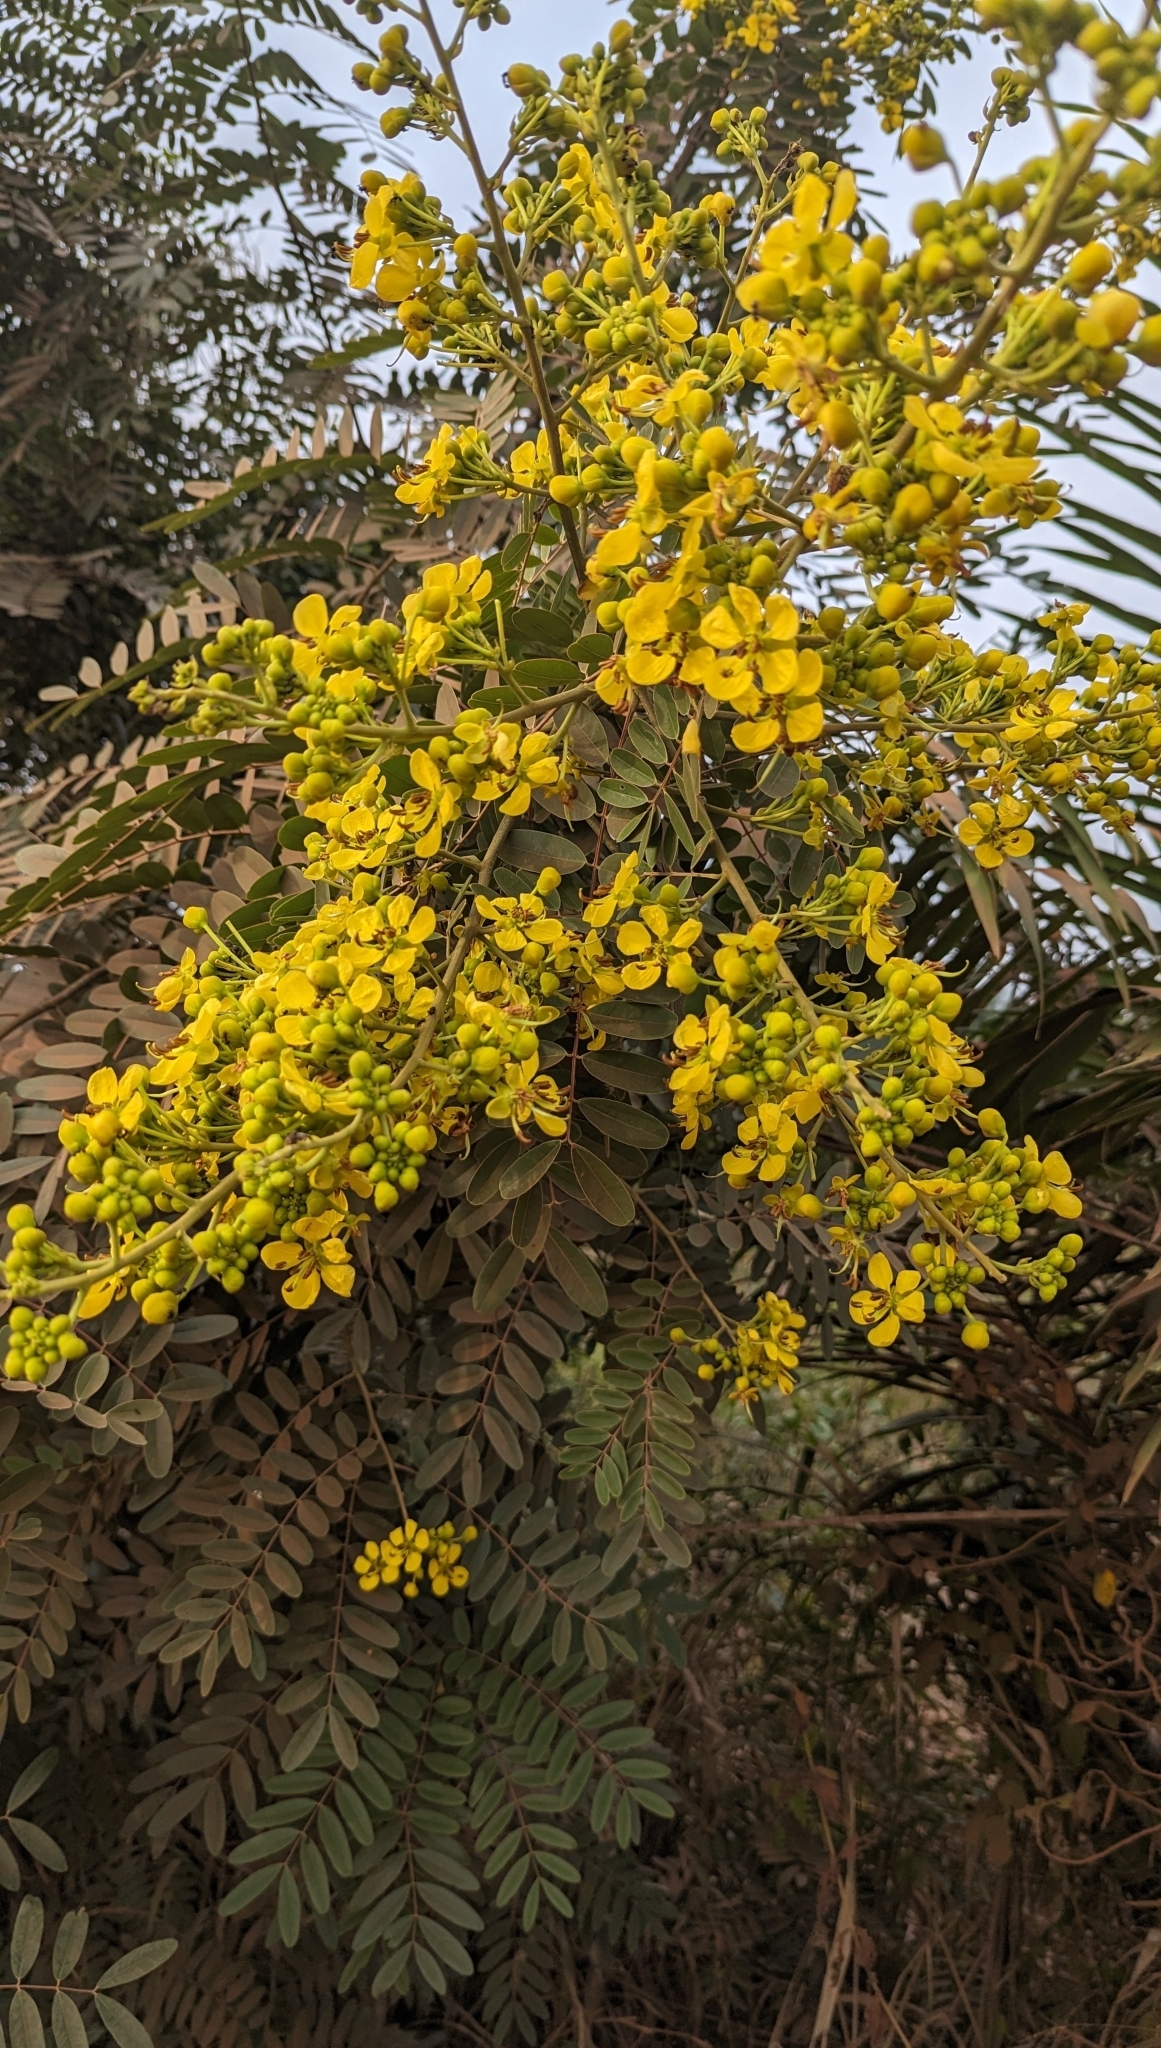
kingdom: Plantae
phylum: Tracheophyta
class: Magnoliopsida
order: Fabales
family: Fabaceae
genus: Senna
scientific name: Senna siamea
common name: Siamese cassia
